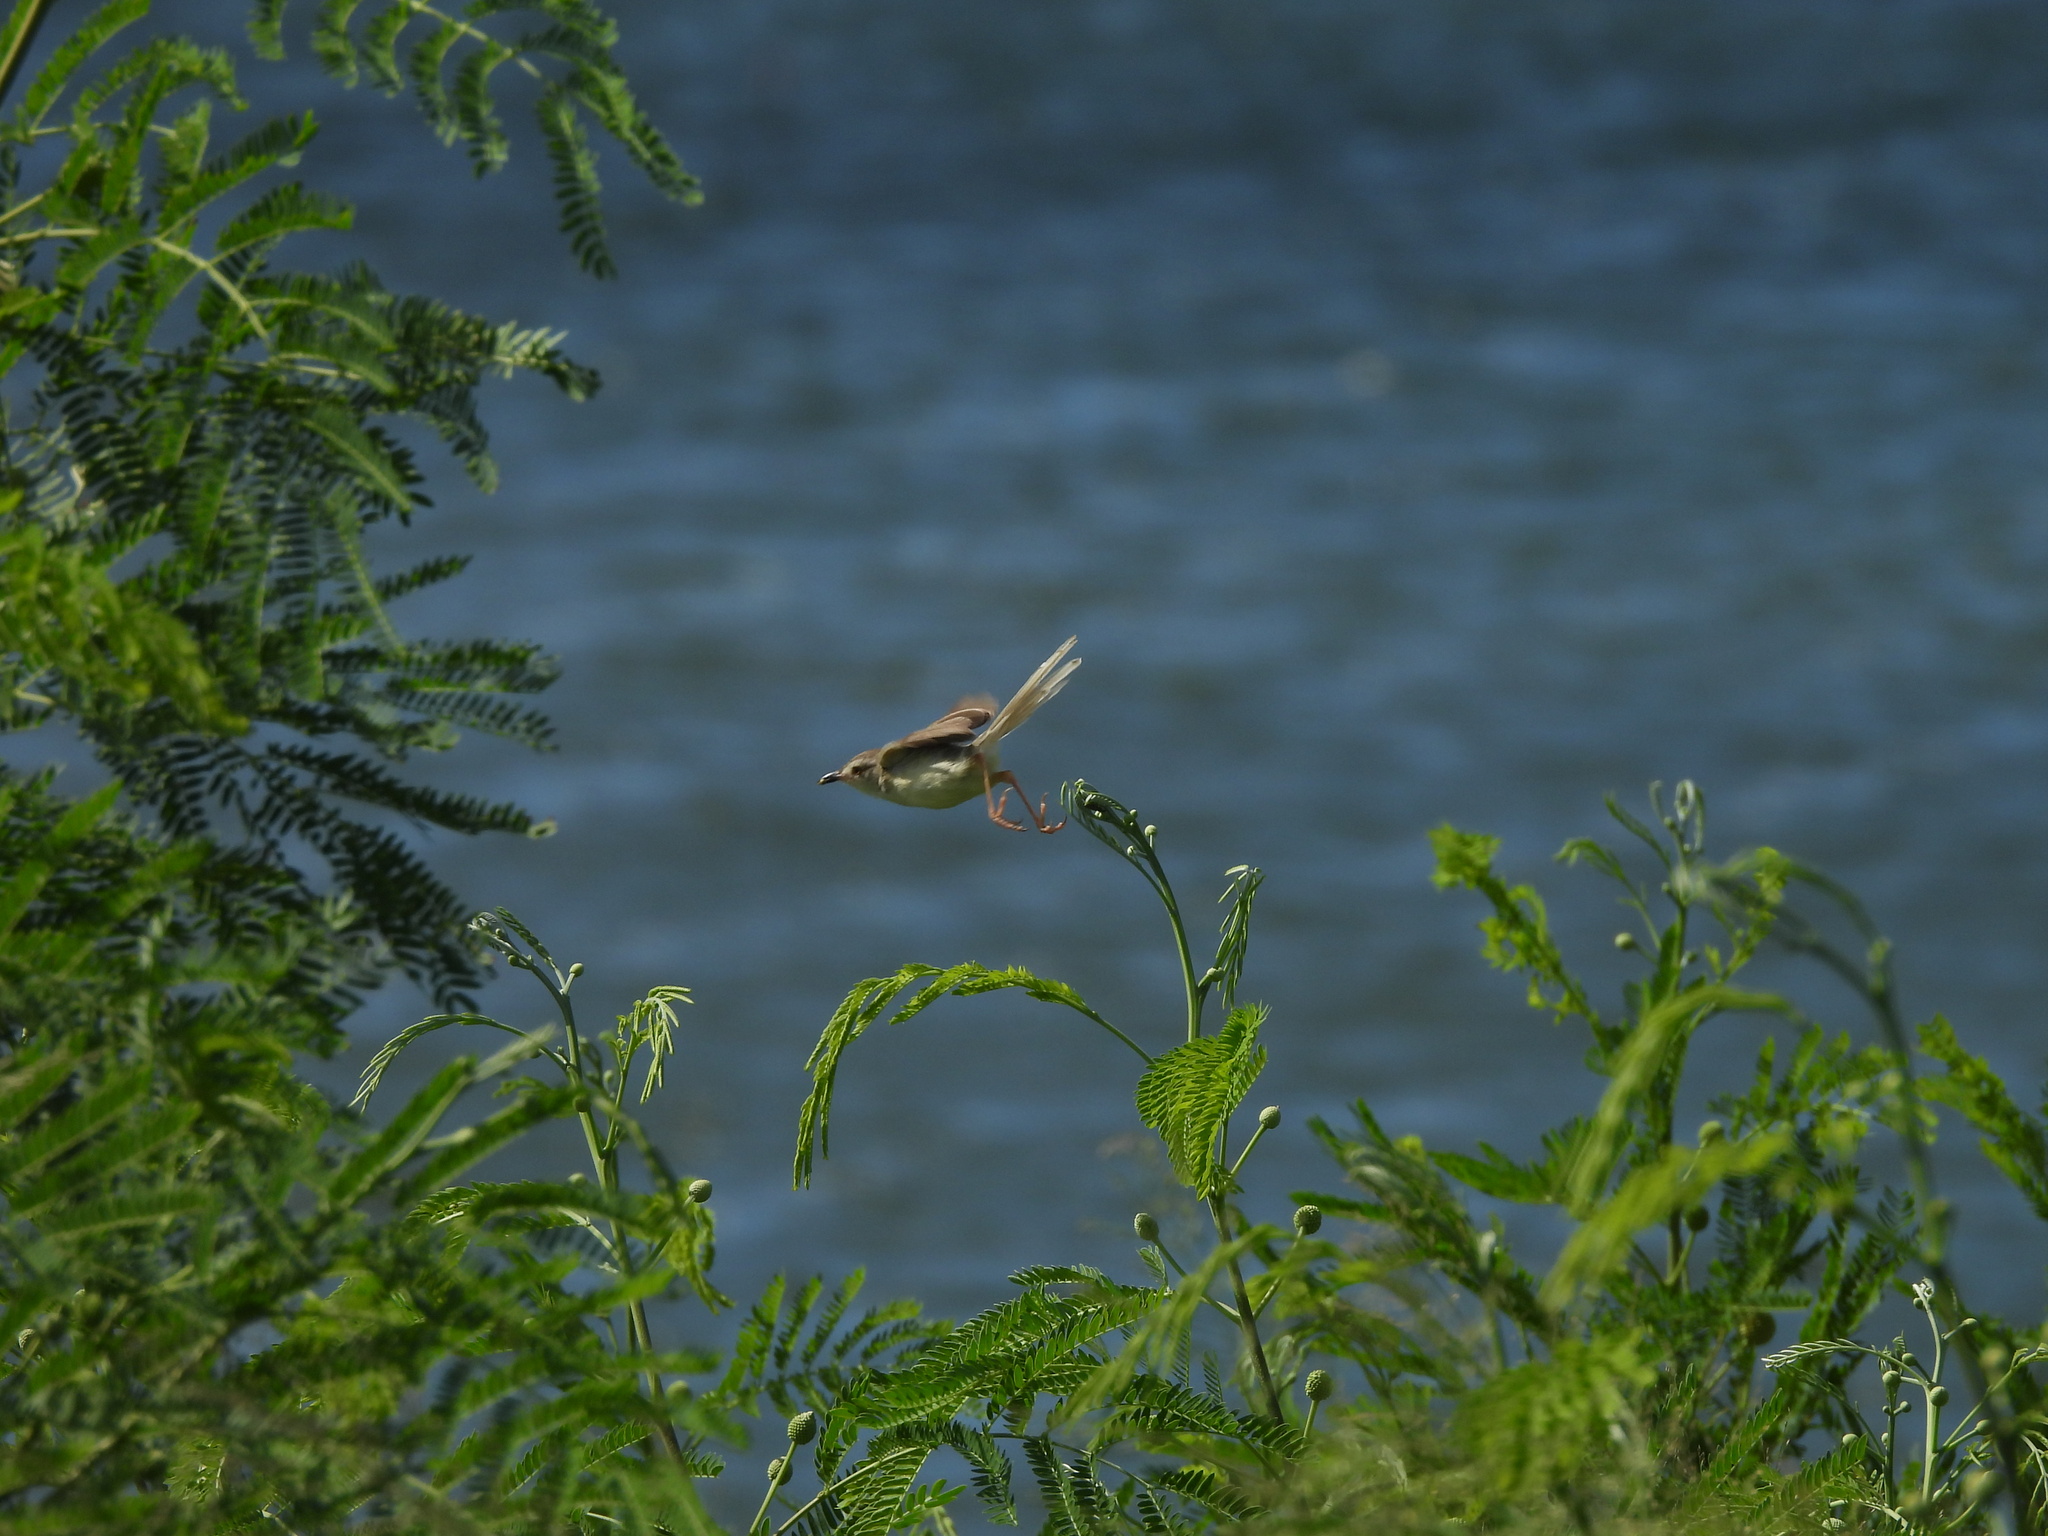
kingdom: Animalia
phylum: Chordata
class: Aves
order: Passeriformes
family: Cisticolidae
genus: Prinia
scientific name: Prinia inornata
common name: Plain prinia
